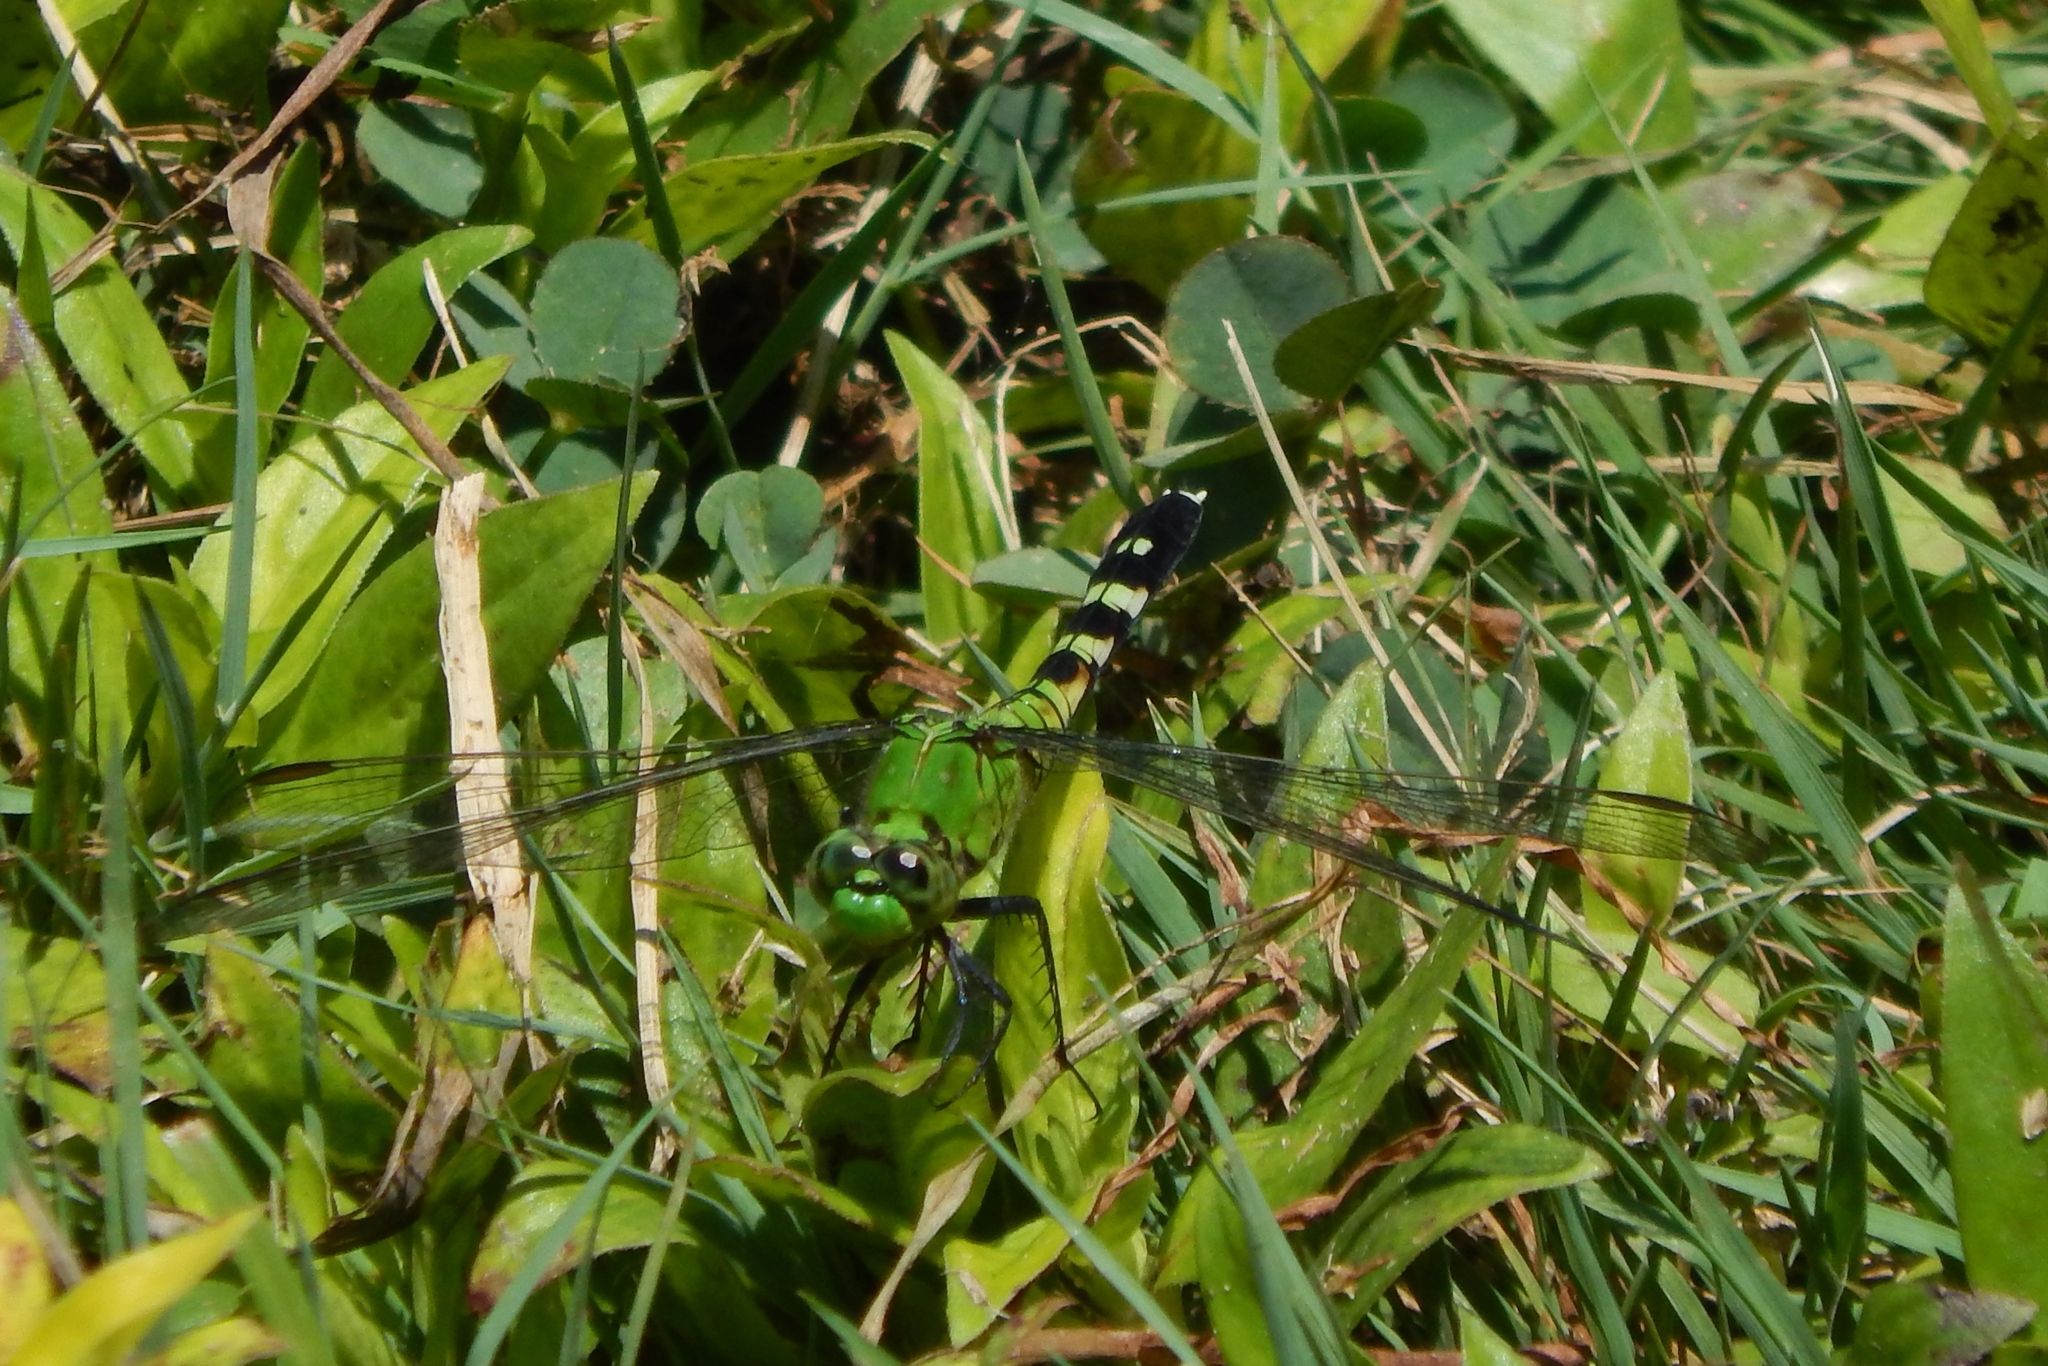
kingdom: Animalia
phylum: Arthropoda
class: Insecta
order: Odonata
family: Libellulidae
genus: Erythemis
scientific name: Erythemis simplicicollis
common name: Eastern pondhawk
